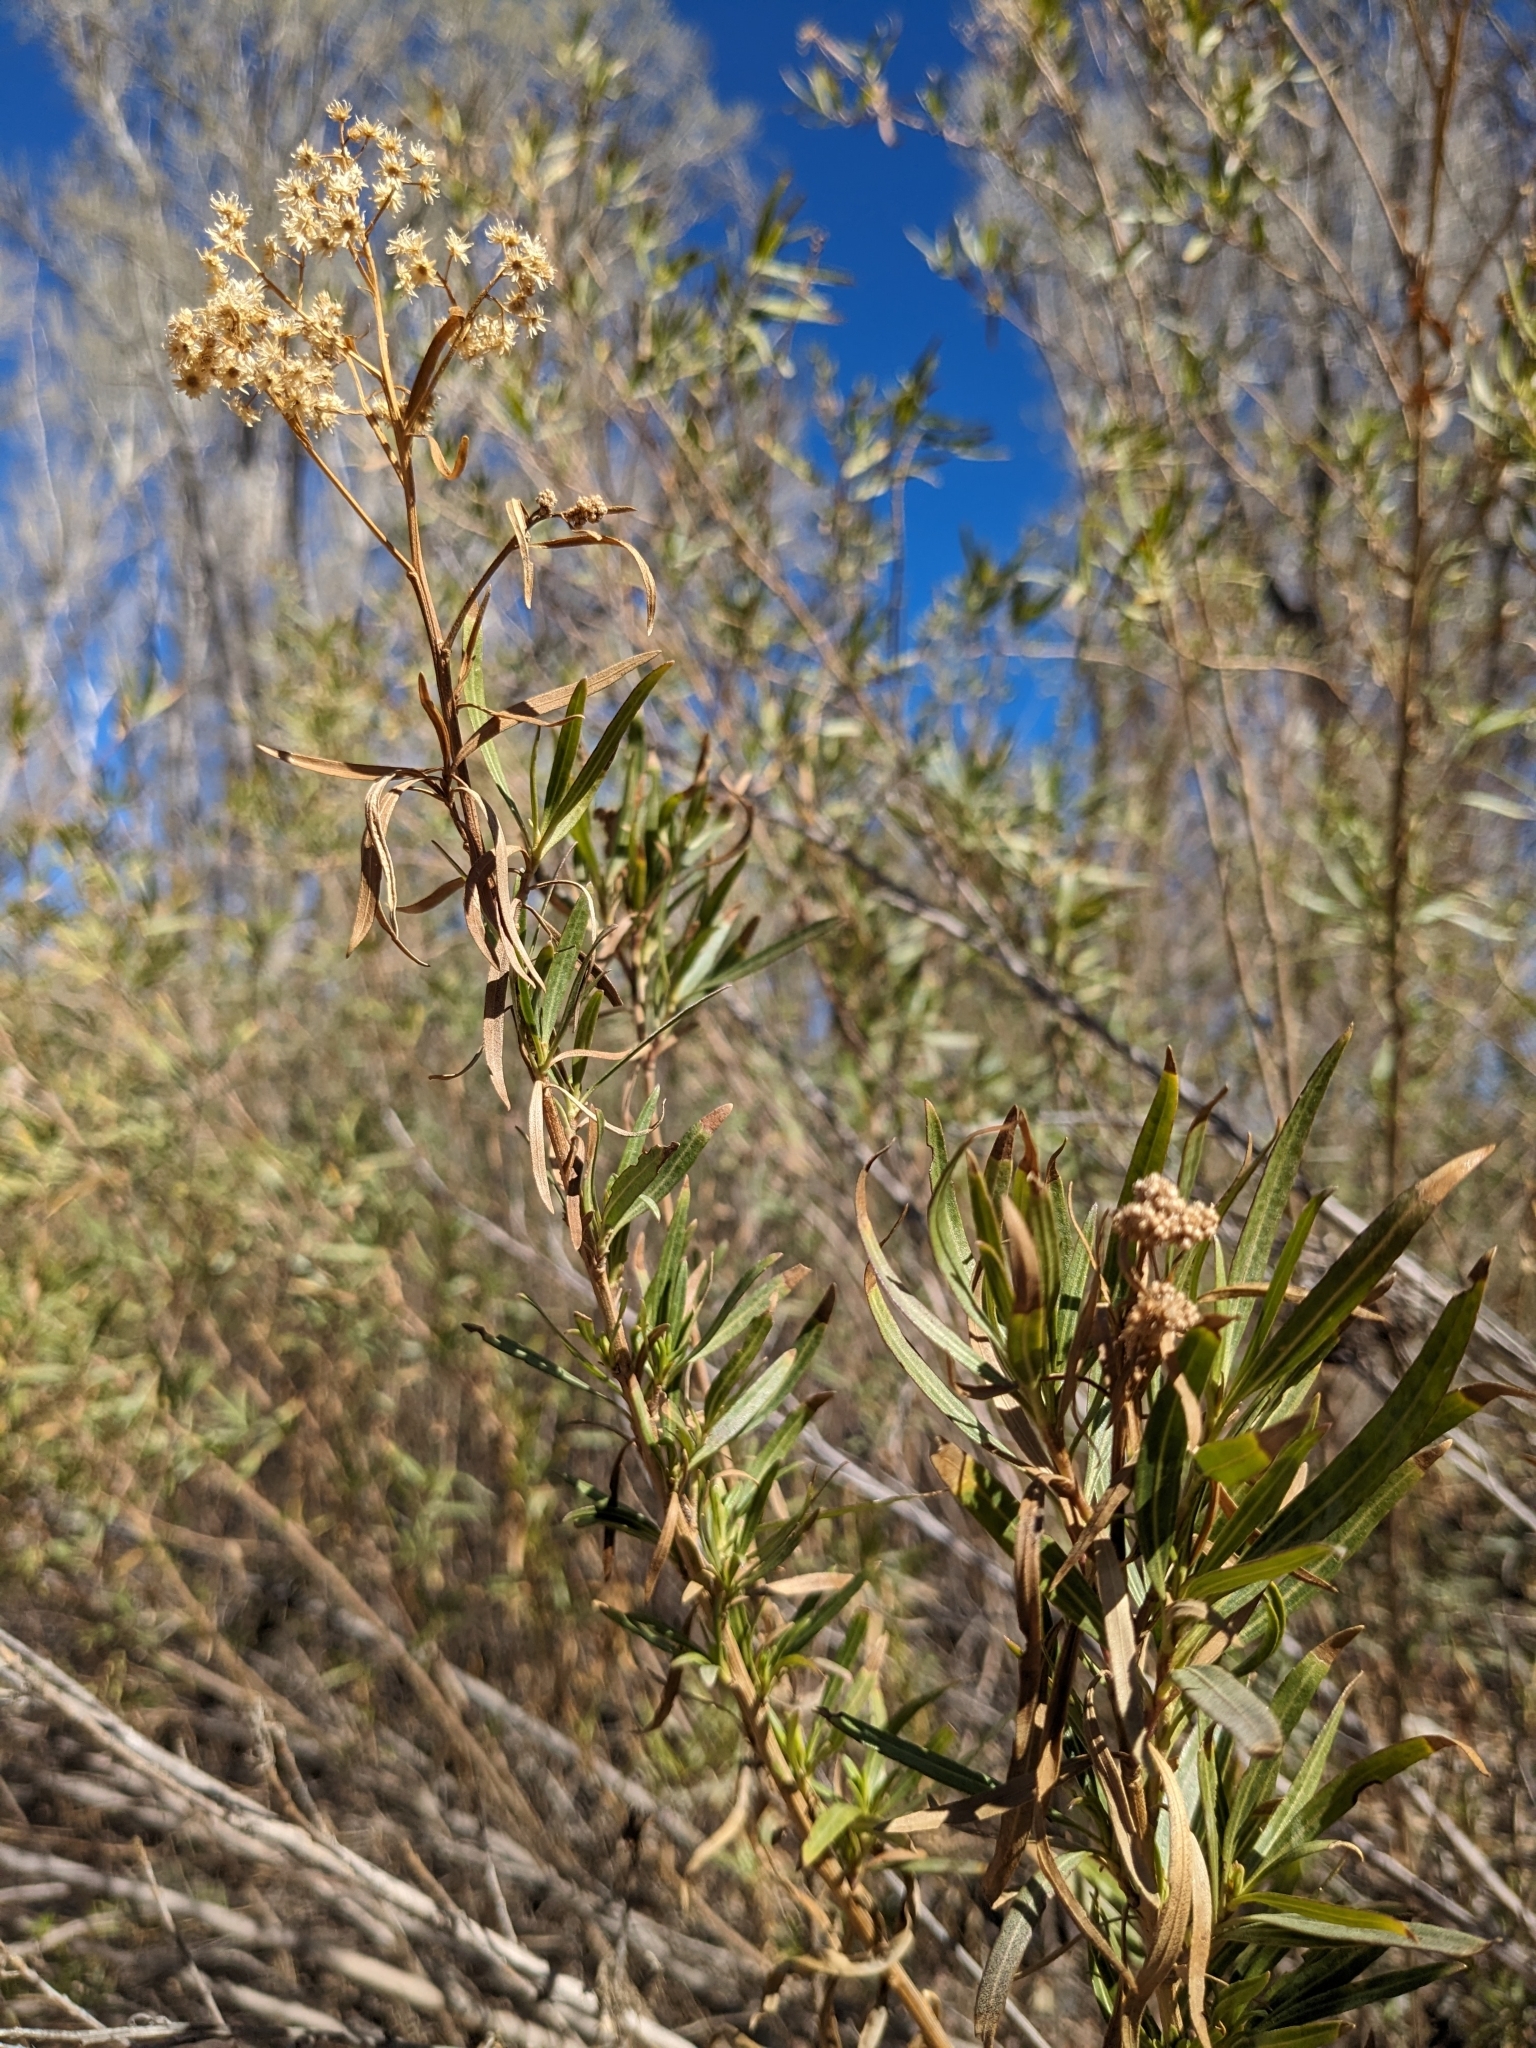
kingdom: Plantae
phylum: Tracheophyta
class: Magnoliopsida
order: Asterales
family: Asteraceae
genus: Baccharis
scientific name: Baccharis salicifolia
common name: Sticky baccharis
